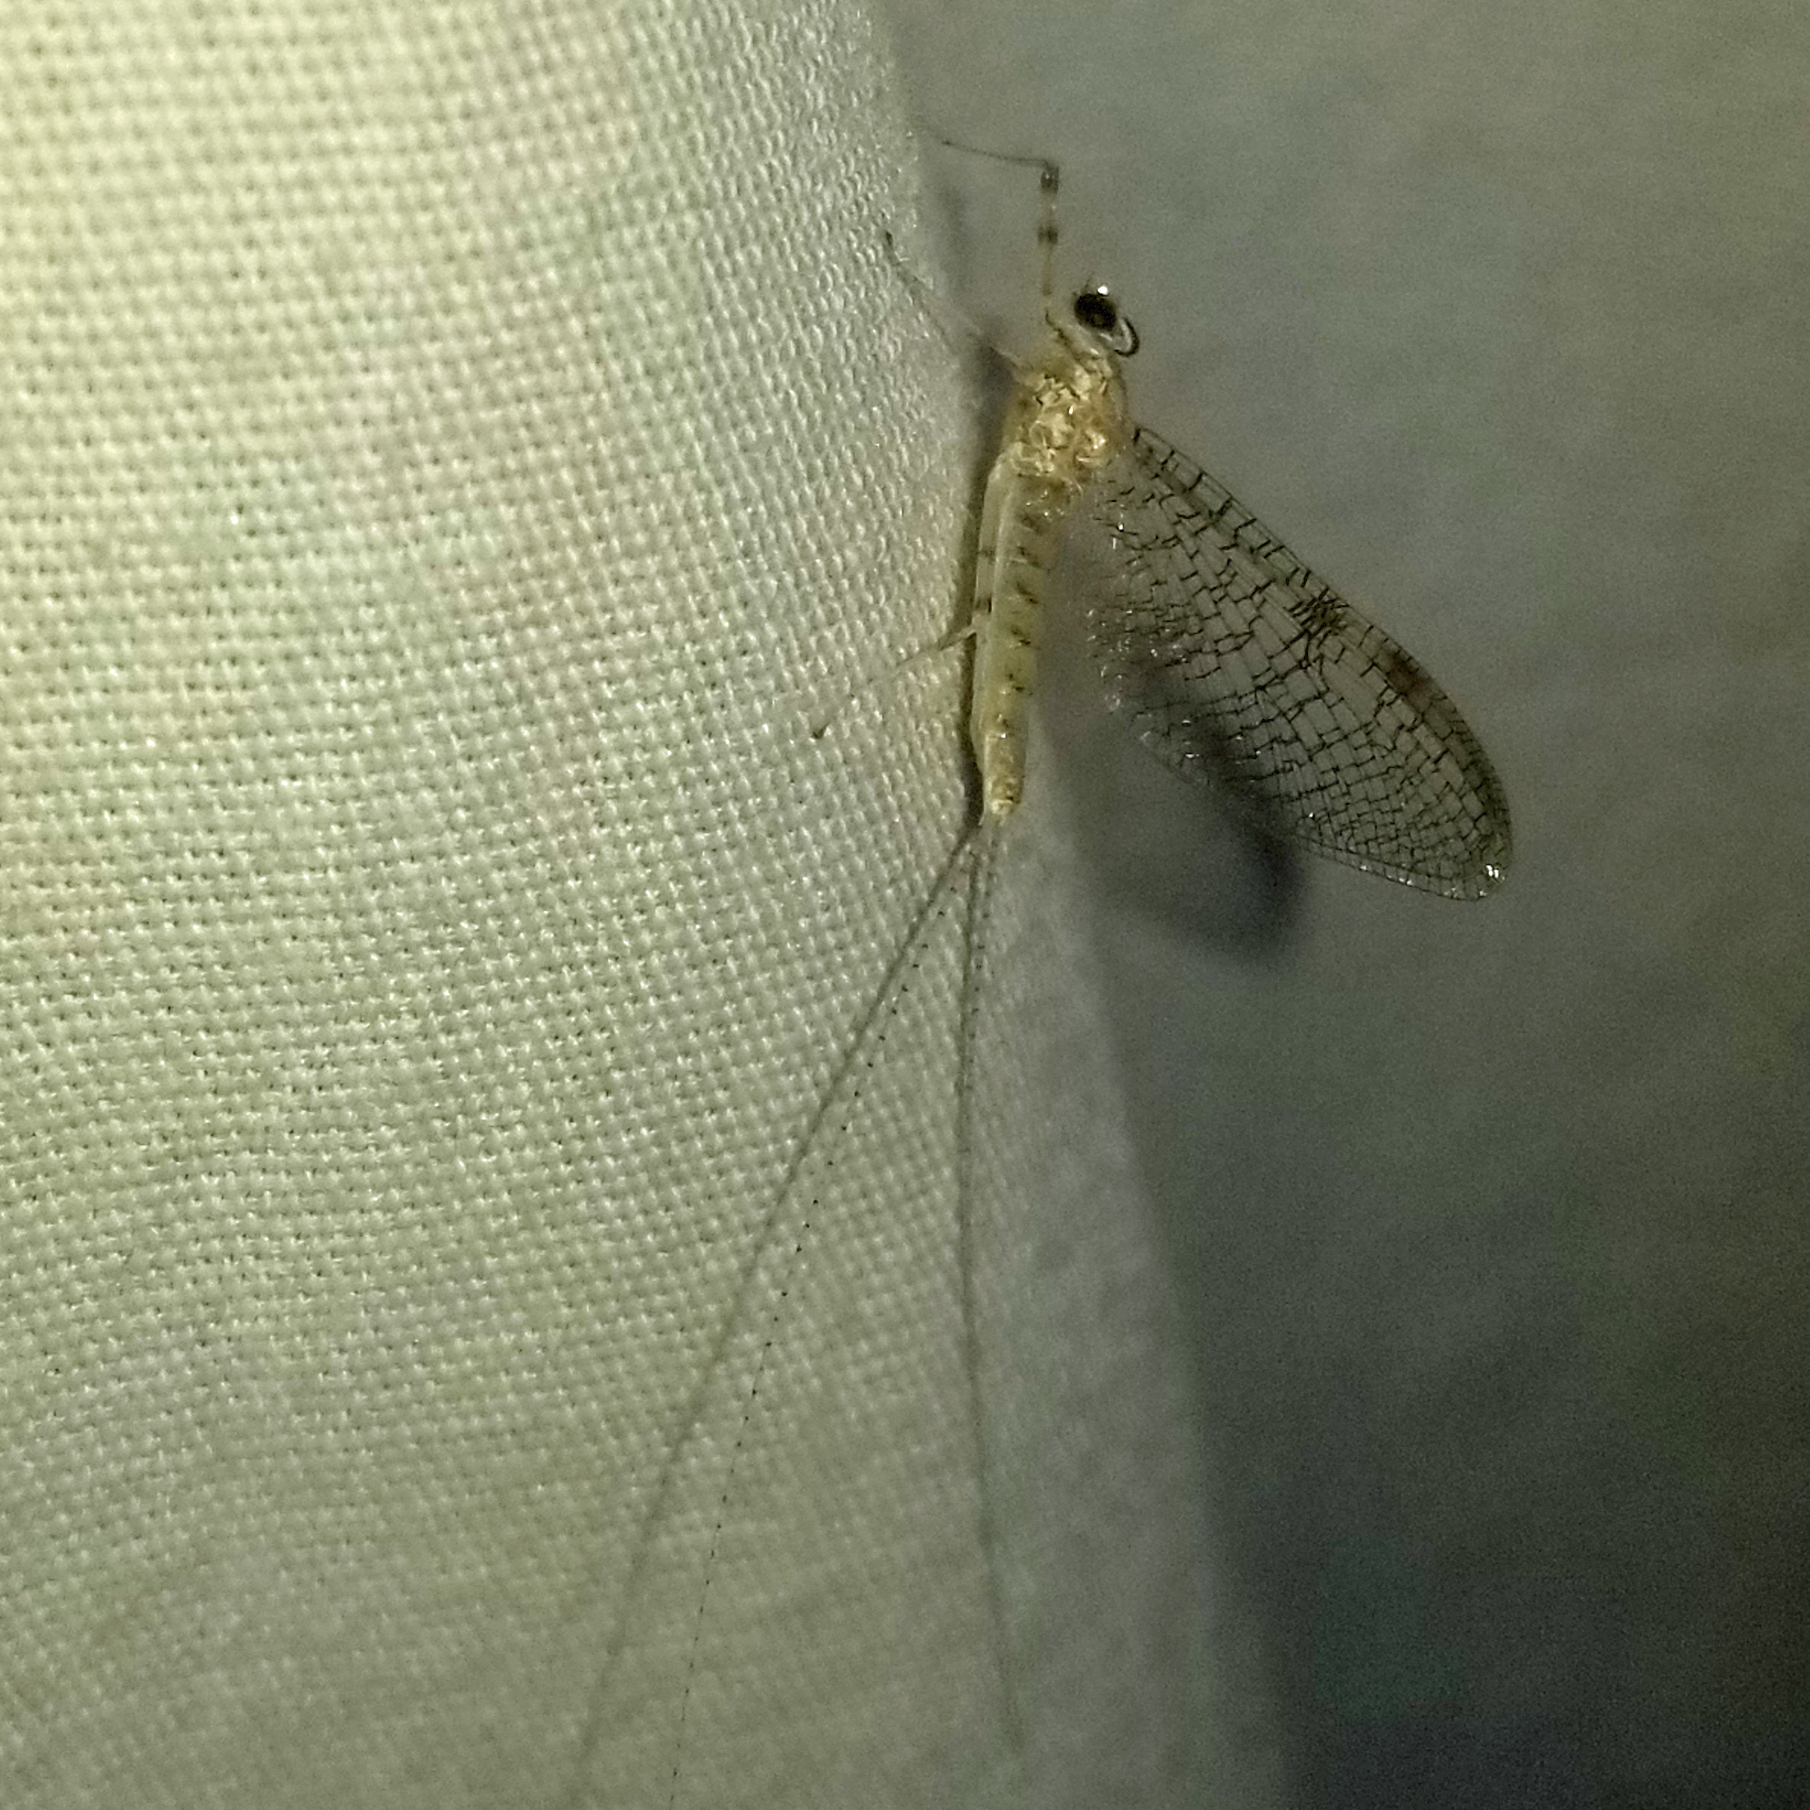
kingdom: Animalia
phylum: Arthropoda
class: Insecta
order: Ephemeroptera
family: Heptageniidae
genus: Stenonema
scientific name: Stenonema femoratum
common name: Dark cahill
